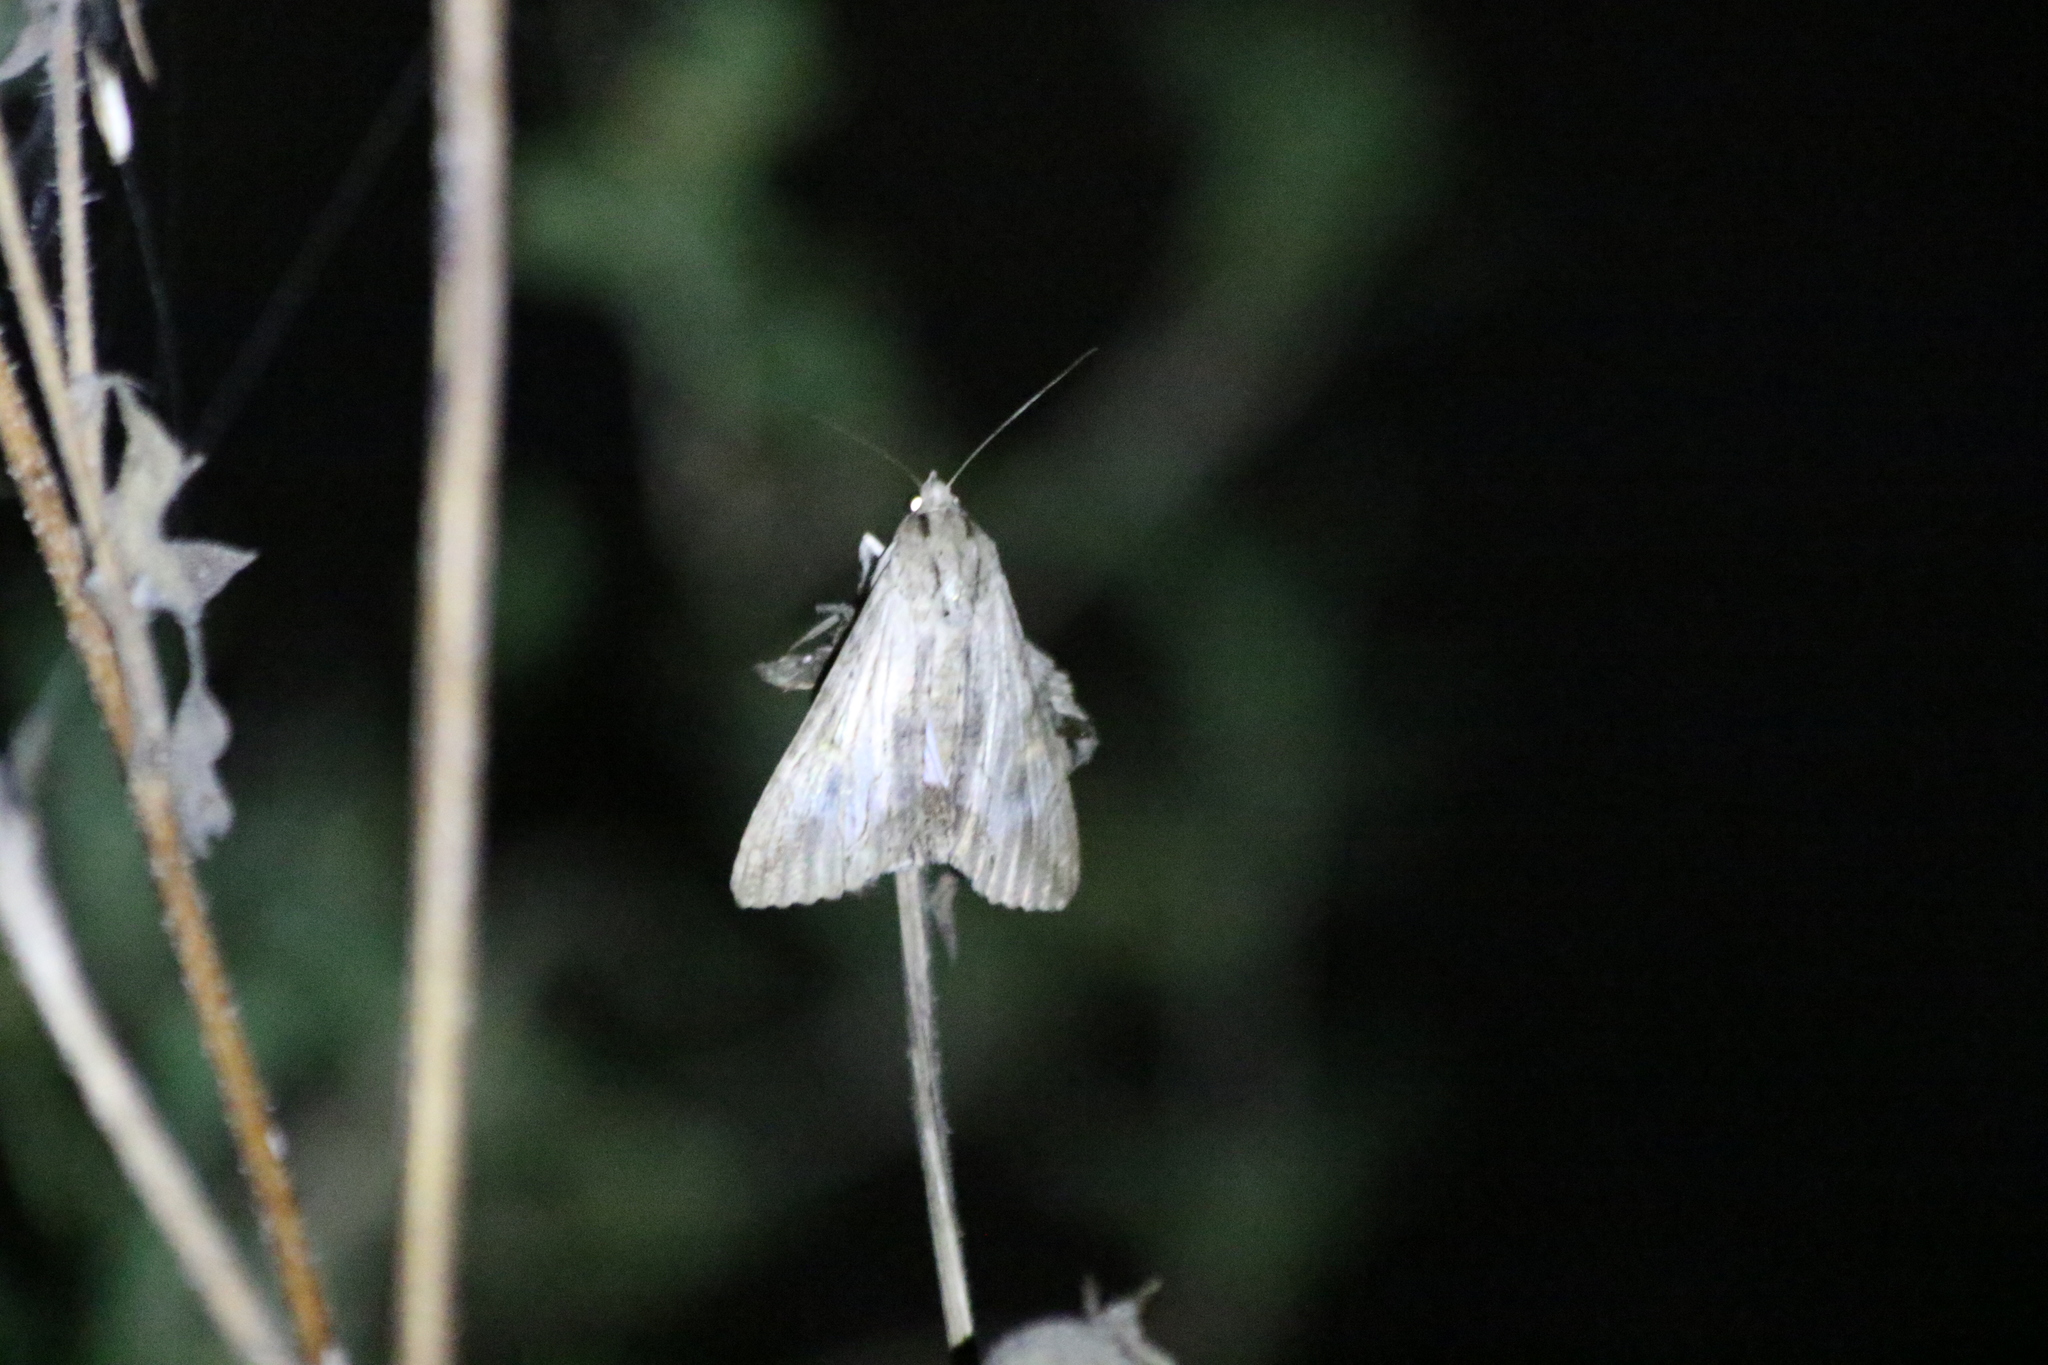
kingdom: Animalia
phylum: Arthropoda
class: Insecta
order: Lepidoptera
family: Erebidae
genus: Melipotis
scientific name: Melipotis acontioides
